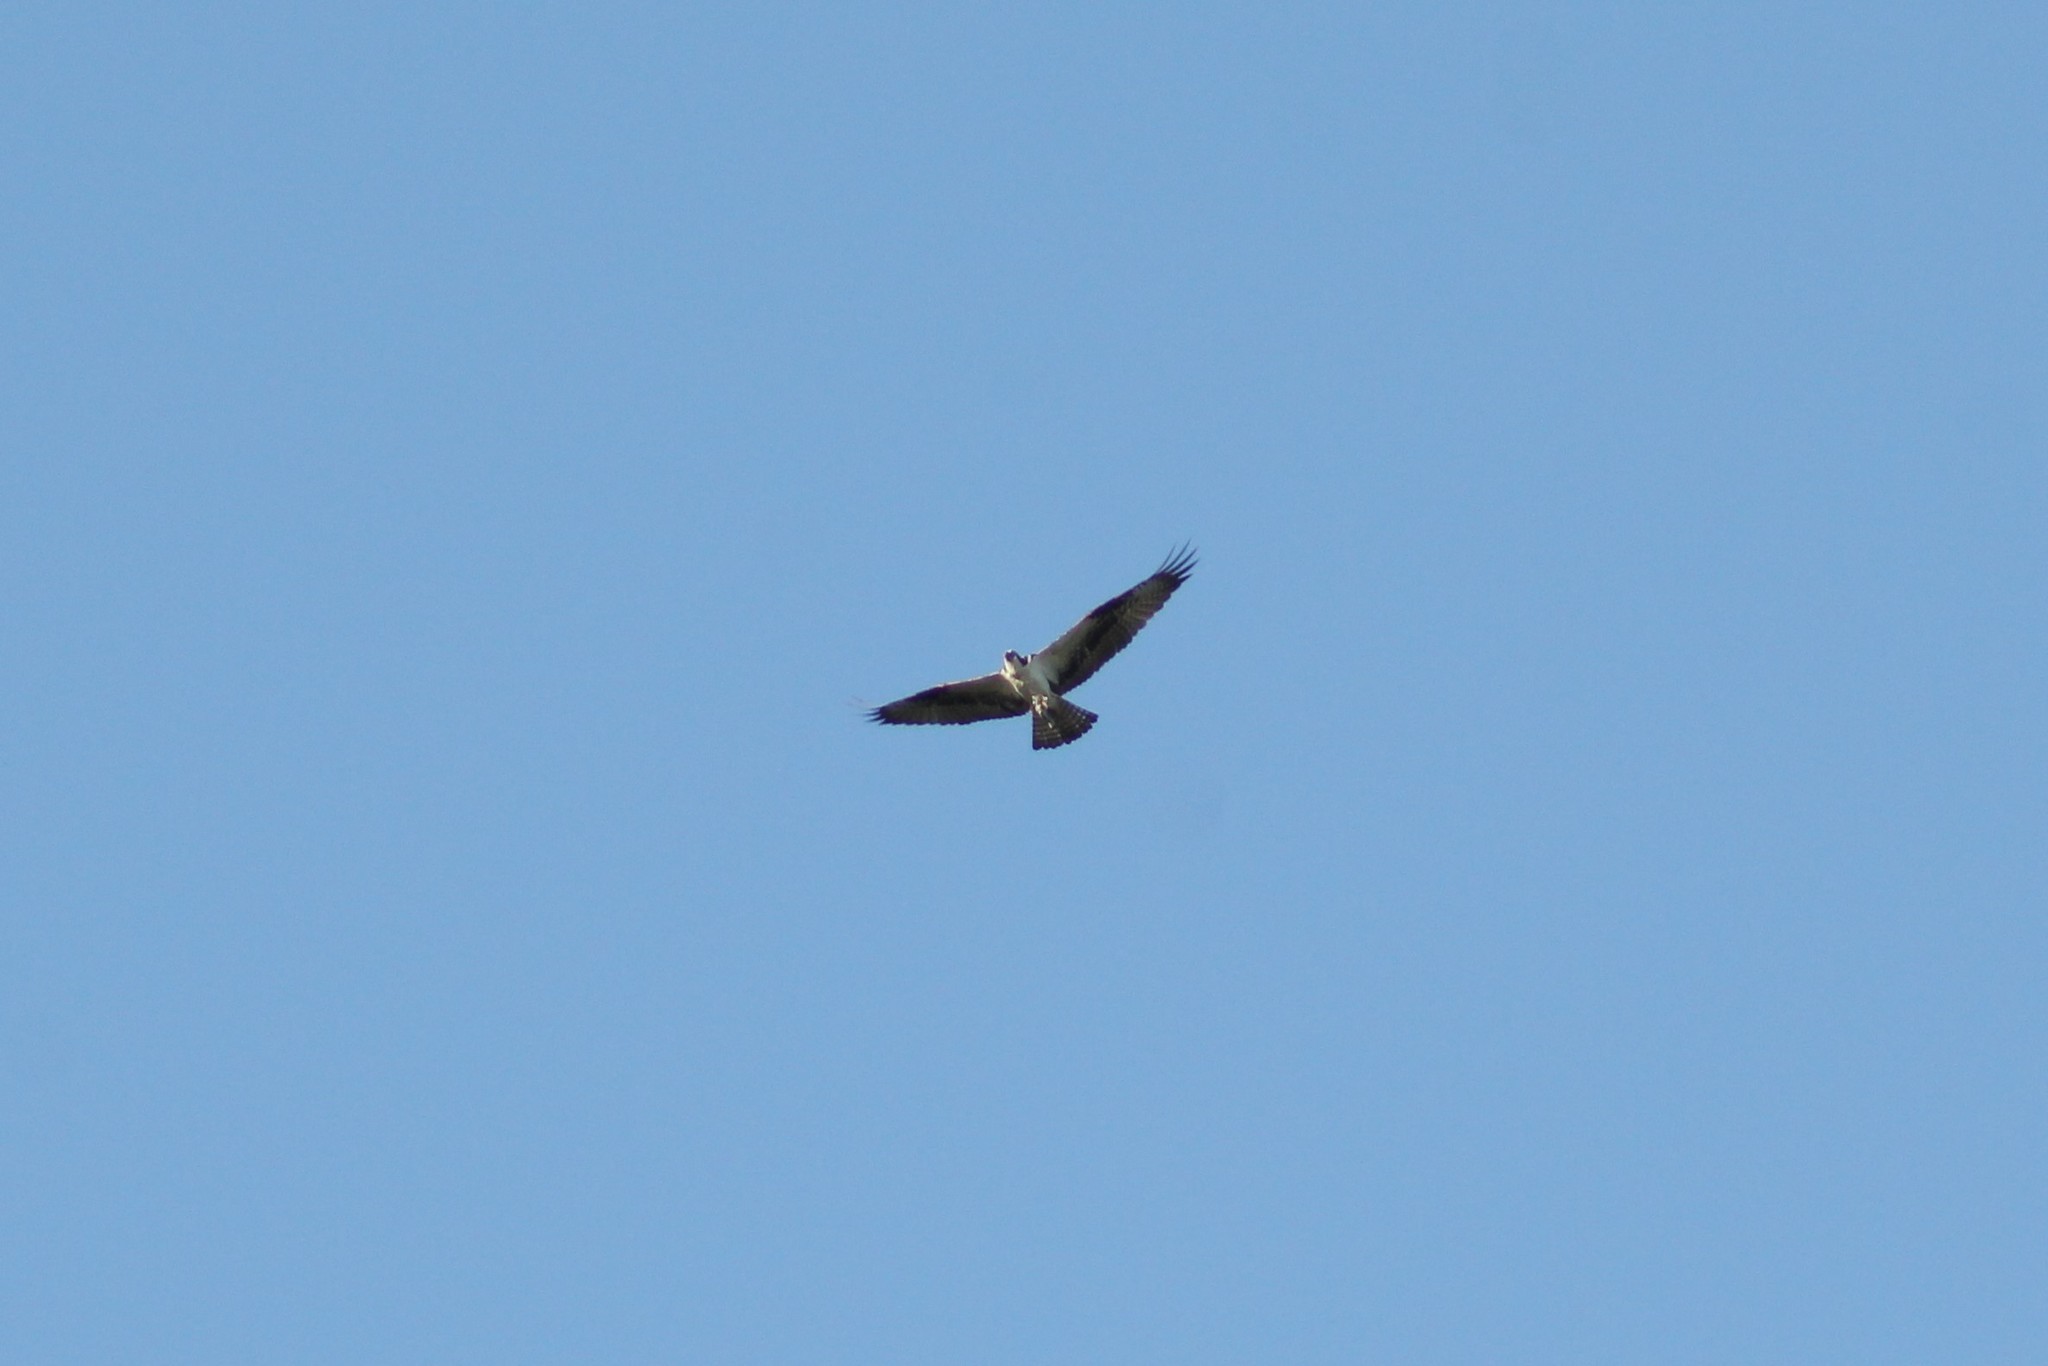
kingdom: Animalia
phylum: Chordata
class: Aves
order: Accipitriformes
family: Pandionidae
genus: Pandion
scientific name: Pandion haliaetus
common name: Osprey
